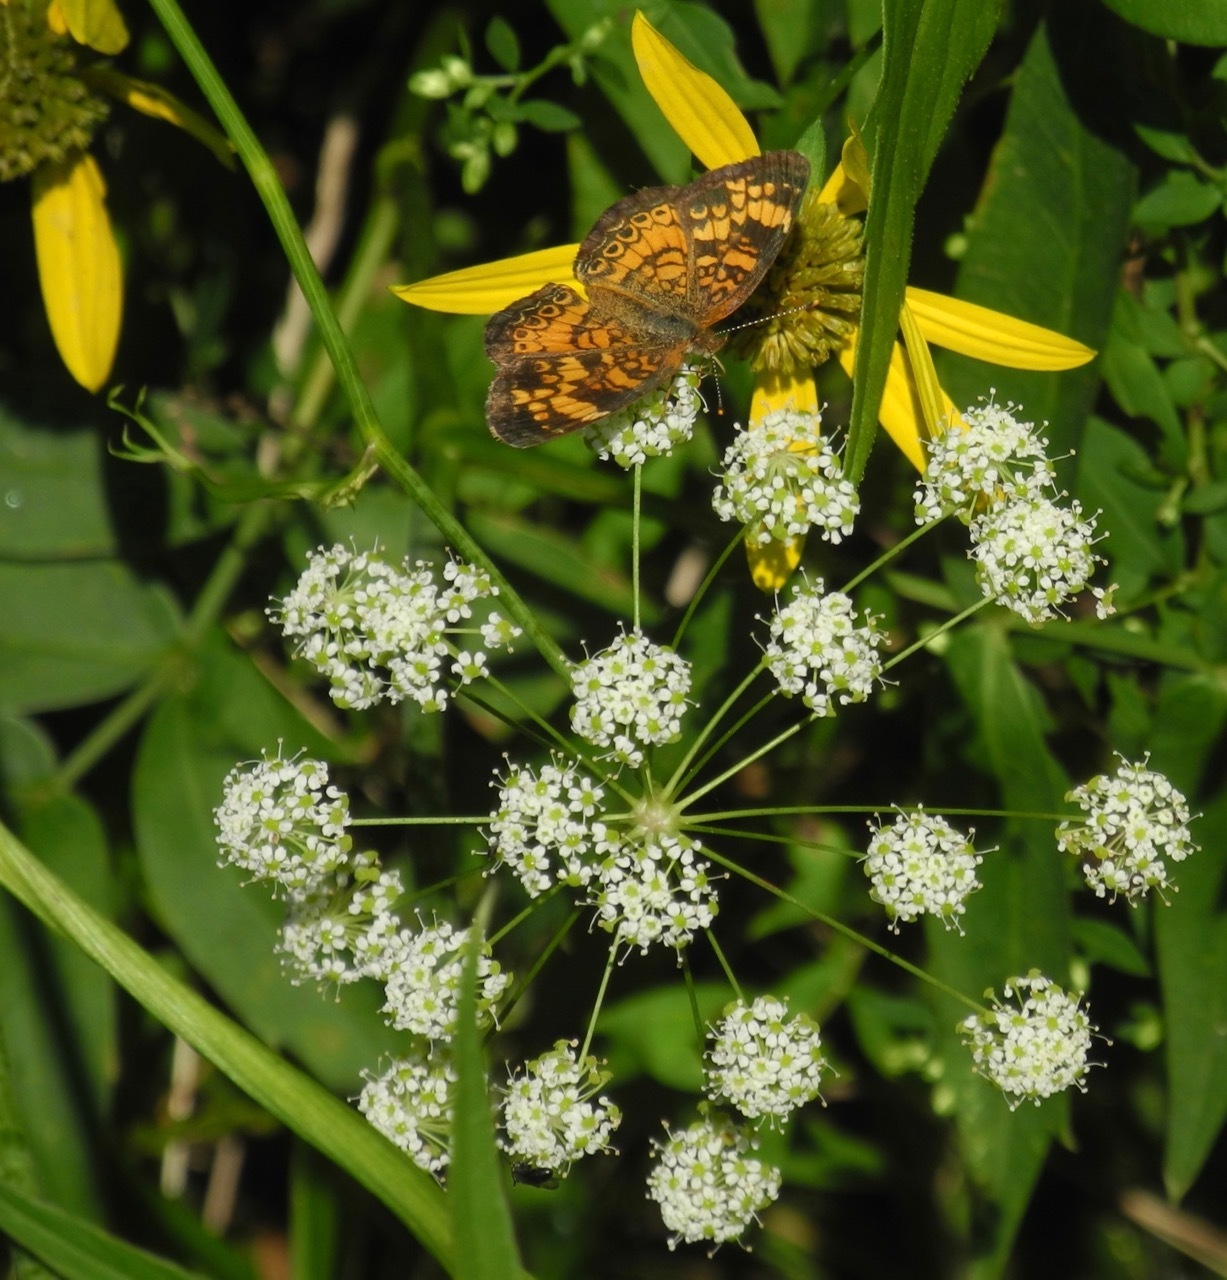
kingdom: Animalia
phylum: Arthropoda
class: Insecta
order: Lepidoptera
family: Nymphalidae
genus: Phyciodes
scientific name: Phyciodes tharos
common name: Pearl crescent
